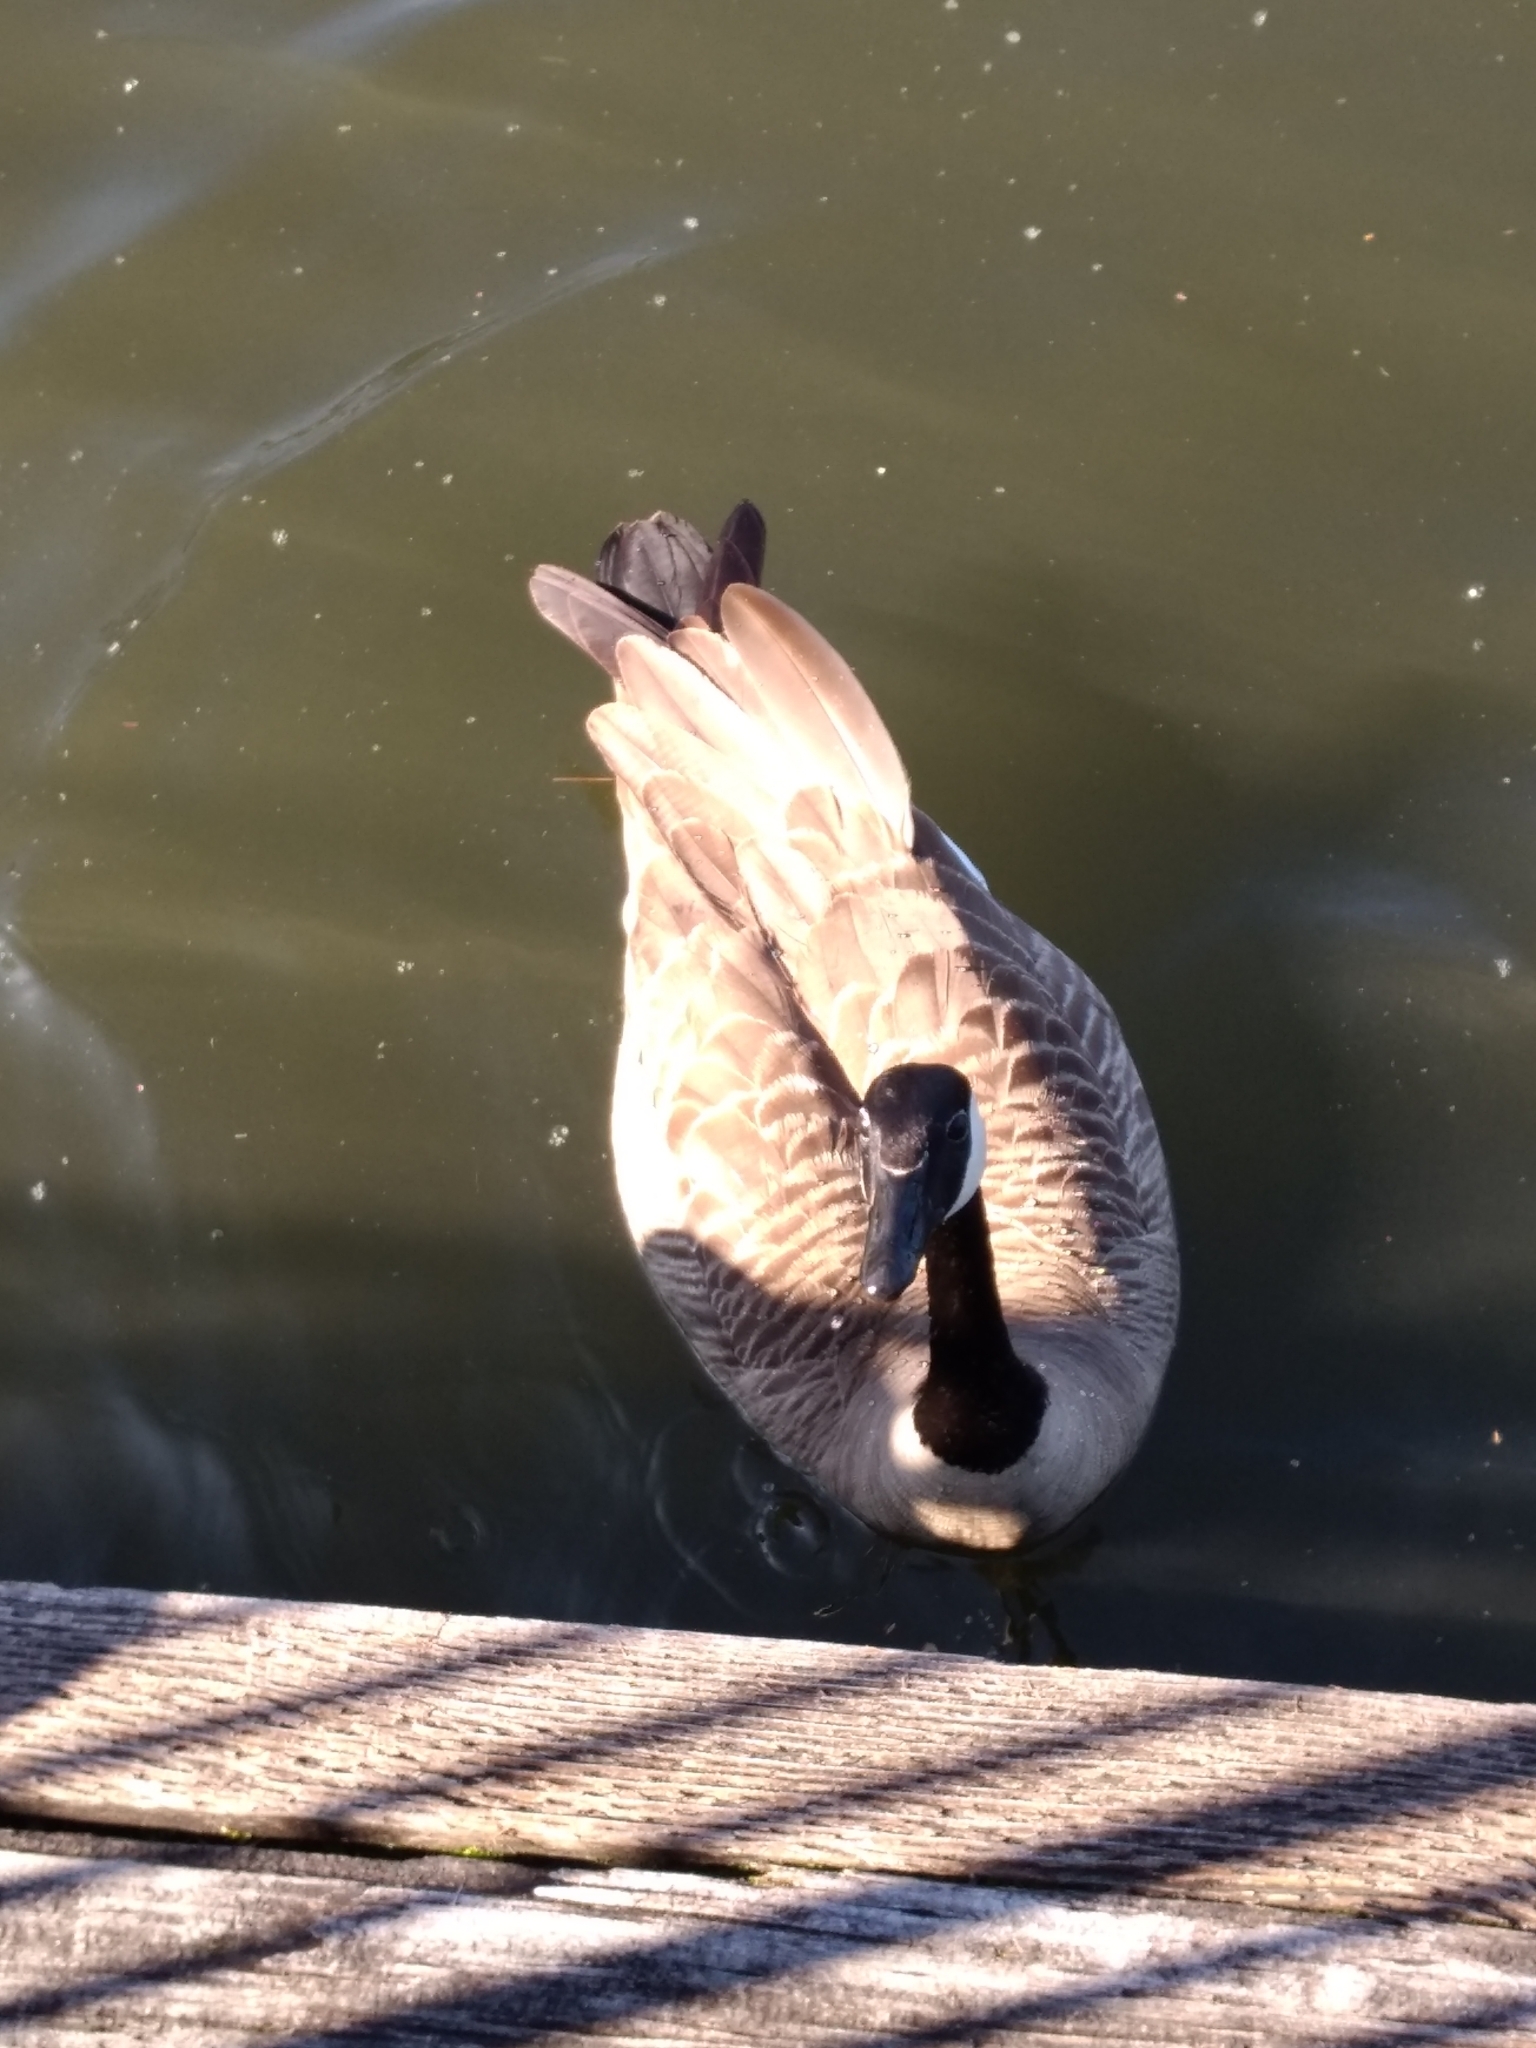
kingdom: Animalia
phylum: Chordata
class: Aves
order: Anseriformes
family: Anatidae
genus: Branta
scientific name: Branta canadensis
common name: Canada goose
